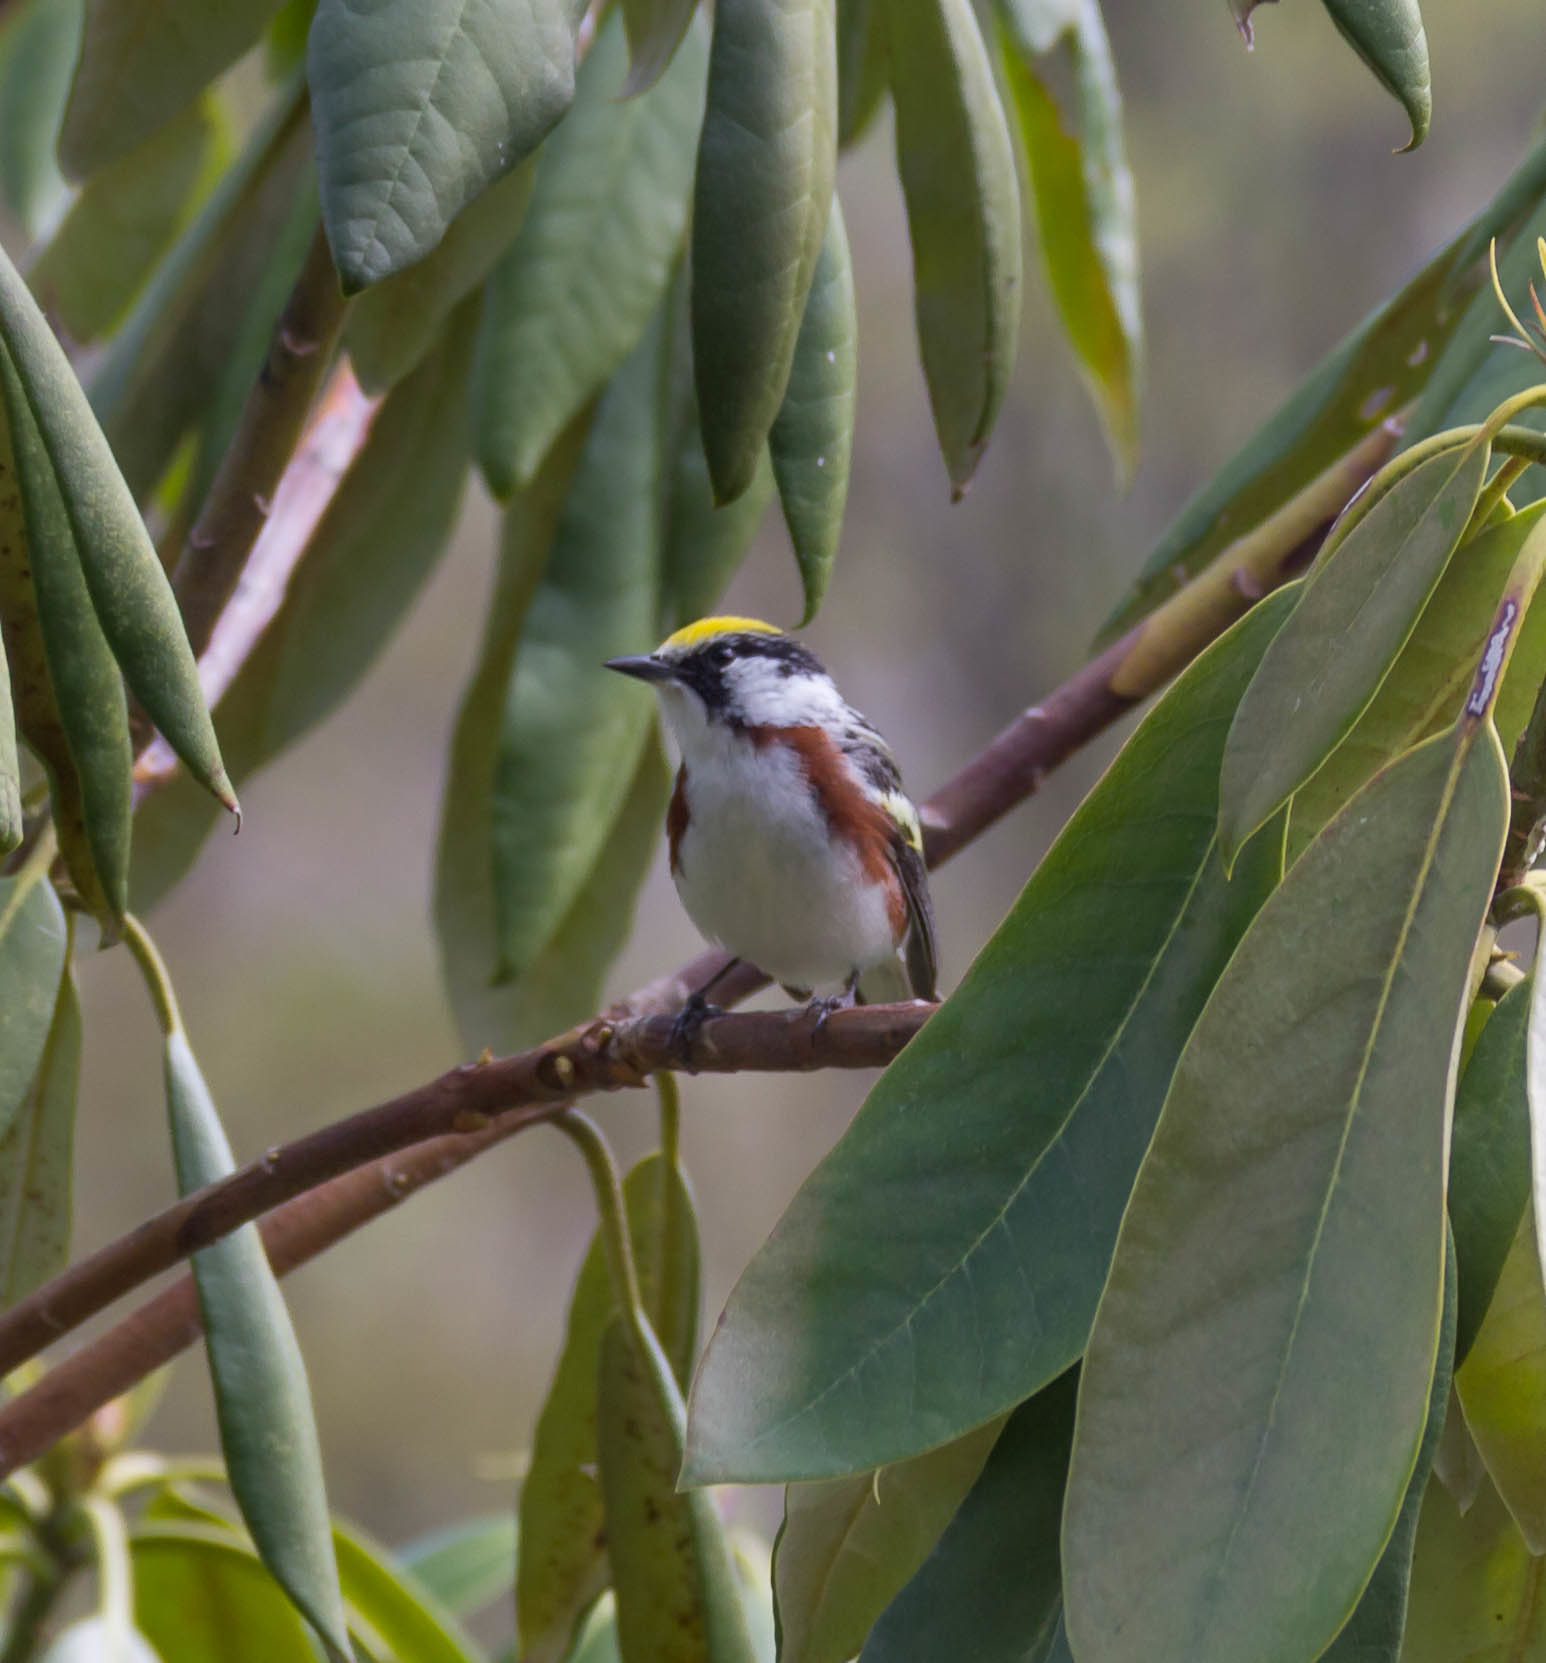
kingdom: Animalia
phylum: Chordata
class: Aves
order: Passeriformes
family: Parulidae
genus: Setophaga
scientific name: Setophaga pensylvanica
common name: Chestnut-sided warbler
